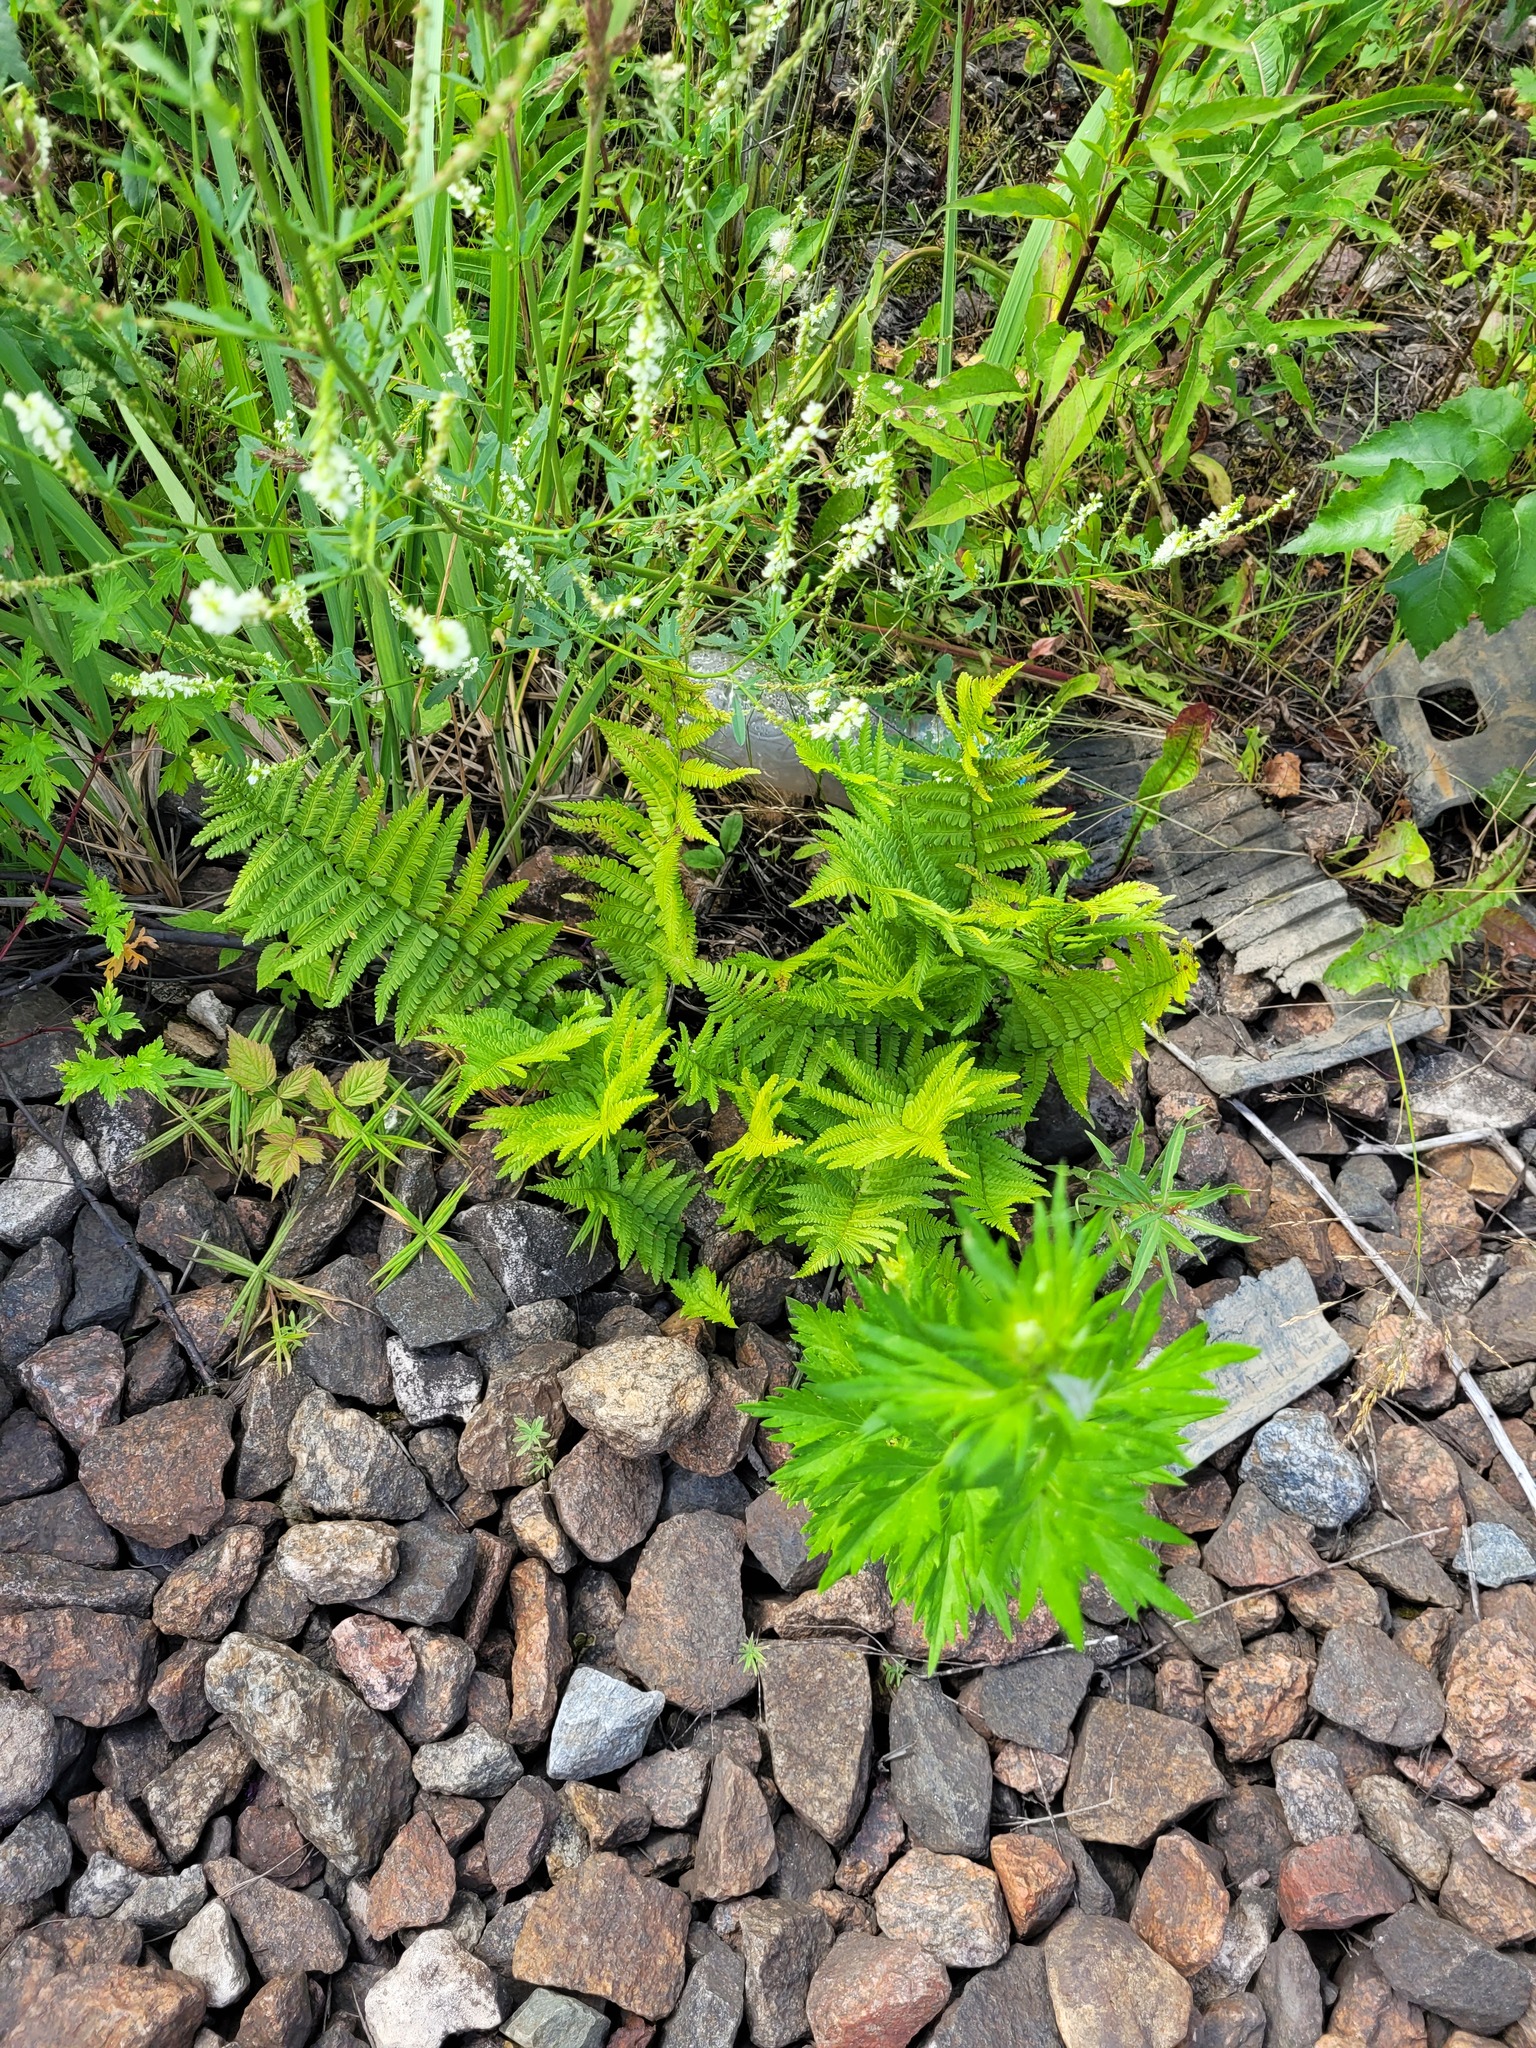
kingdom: Plantae
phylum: Tracheophyta
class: Polypodiopsida
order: Polypodiales
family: Dryopteridaceae
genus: Dryopteris
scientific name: Dryopteris filix-mas
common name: Male fern
